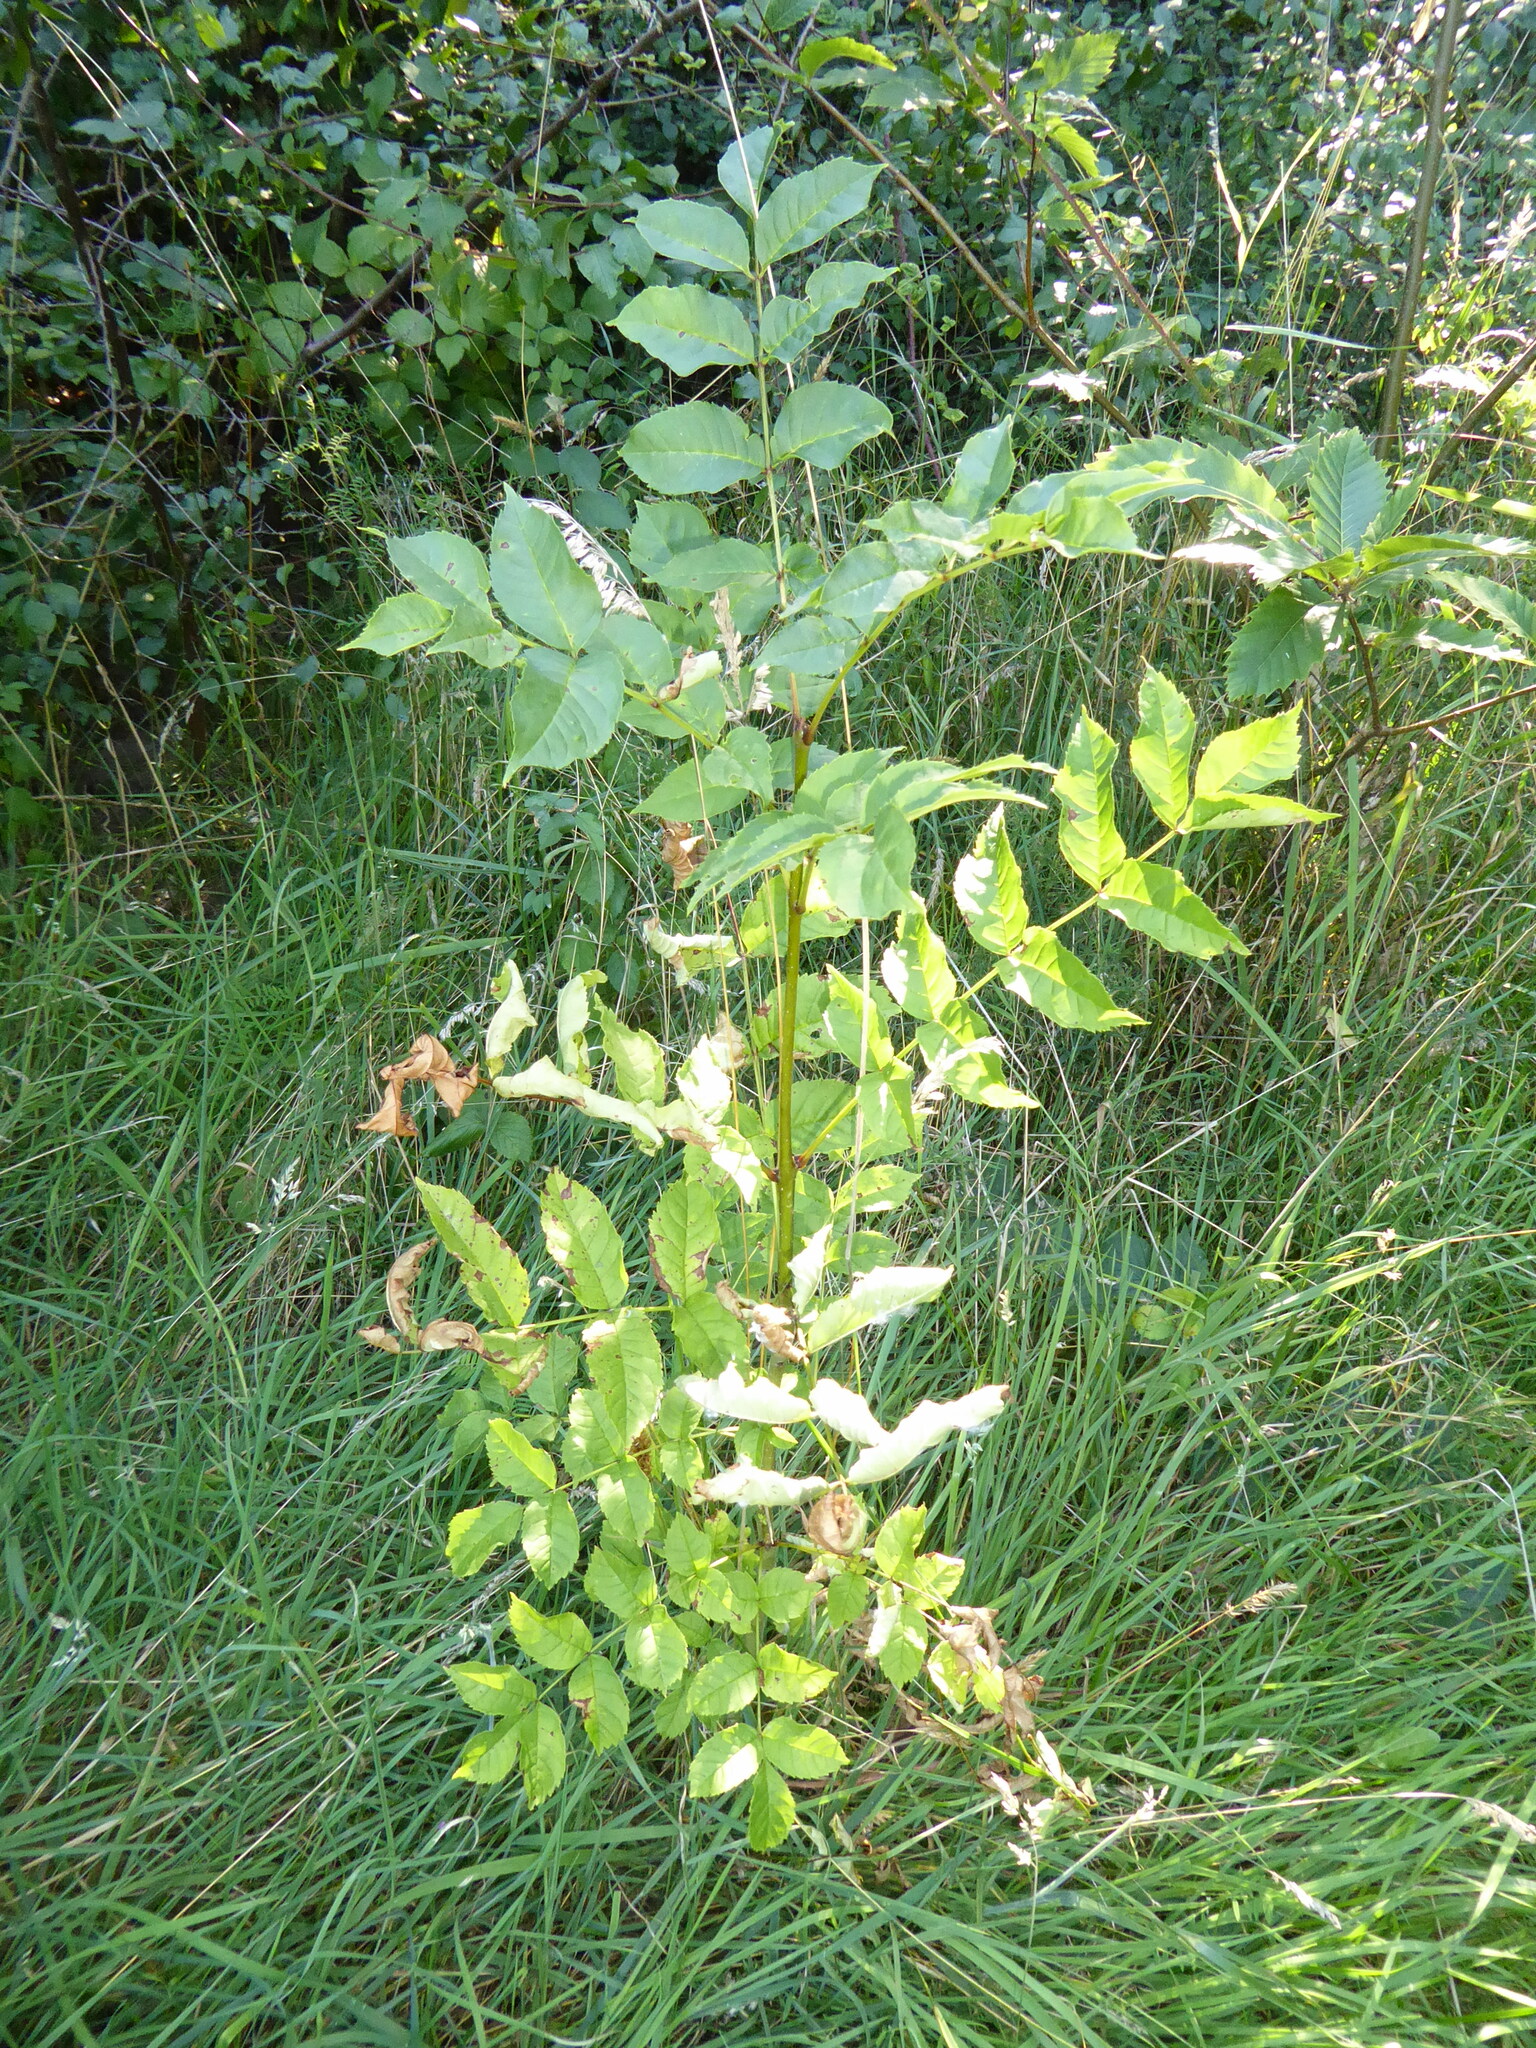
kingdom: Plantae
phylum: Tracheophyta
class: Magnoliopsida
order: Lamiales
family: Oleaceae
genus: Fraxinus
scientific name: Fraxinus excelsior
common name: European ash
